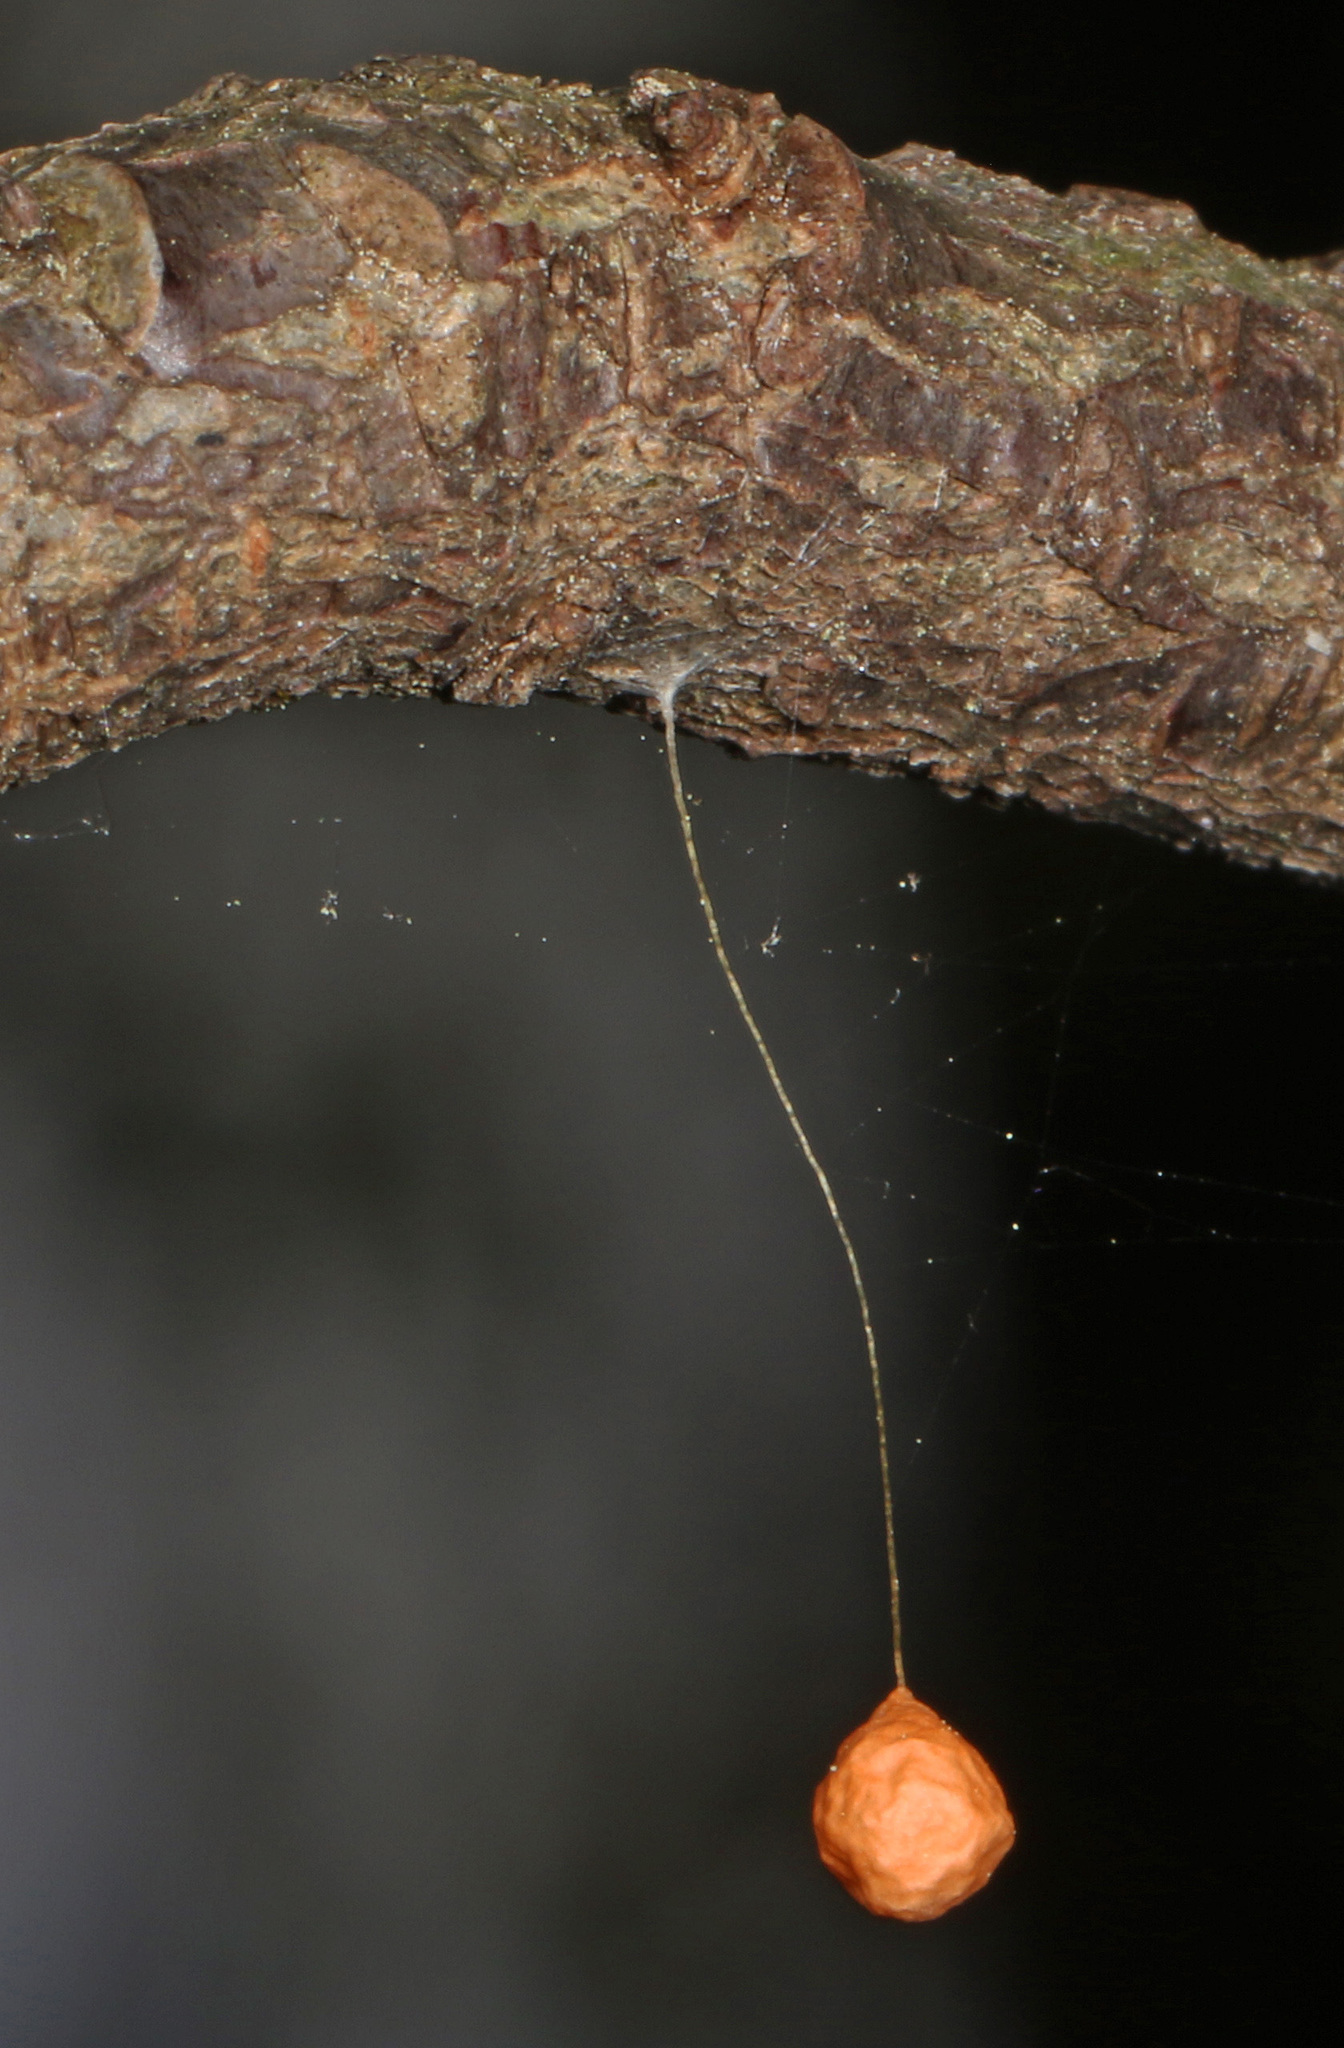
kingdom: Animalia
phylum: Arthropoda
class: Arachnida
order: Araneae
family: Theridiosomatidae
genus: Theridiosoma
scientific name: Theridiosoma gemmosum
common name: Ray spider
